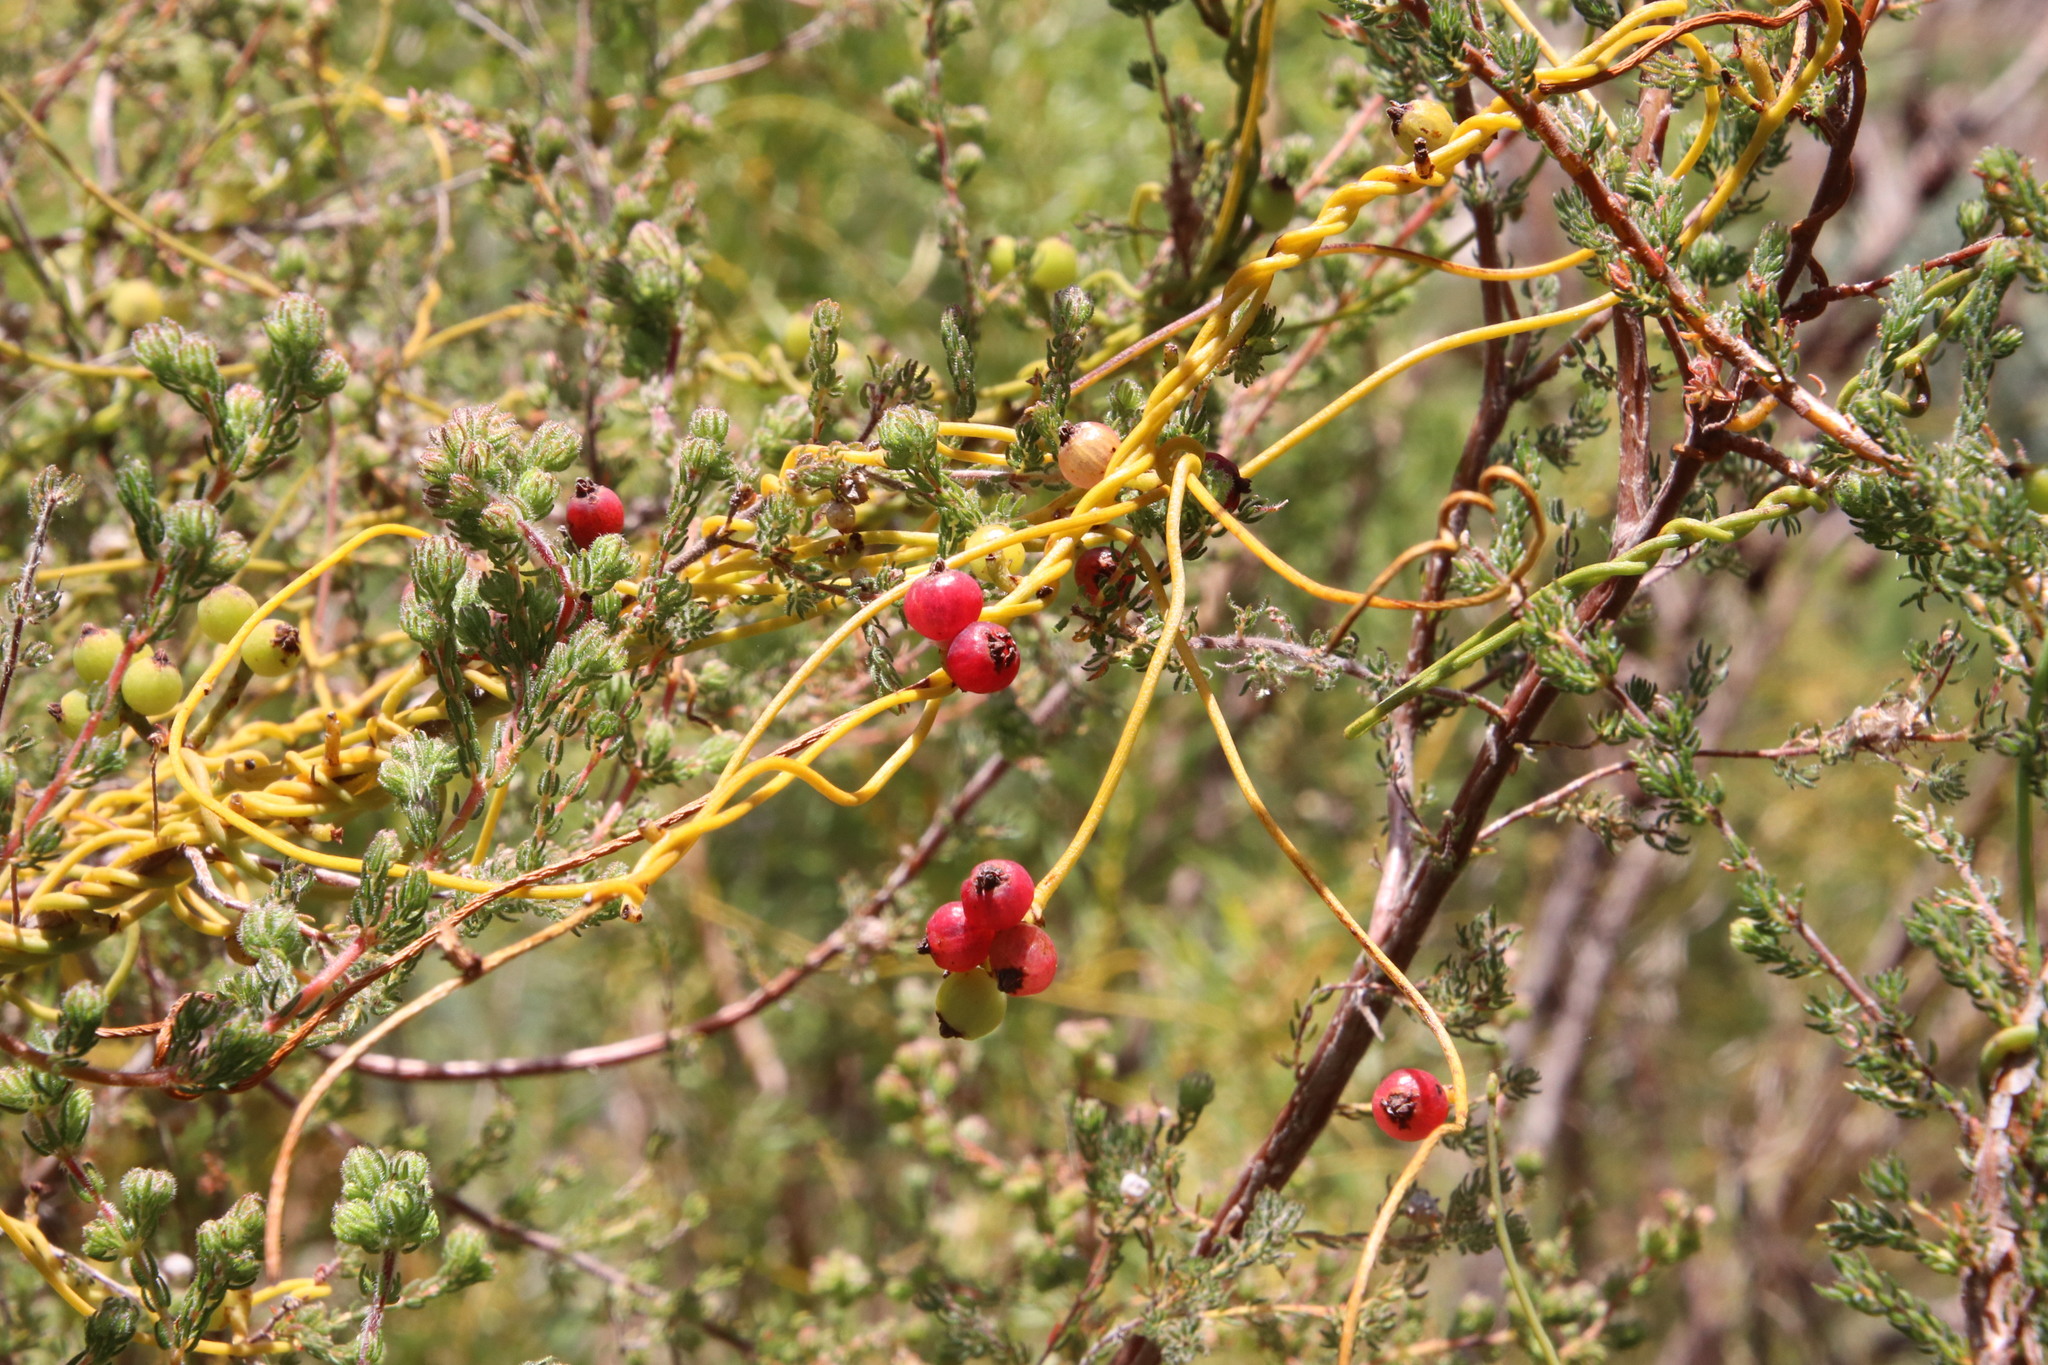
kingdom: Plantae
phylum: Tracheophyta
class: Magnoliopsida
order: Laurales
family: Lauraceae
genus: Cassytha
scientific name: Cassytha ciliolata
